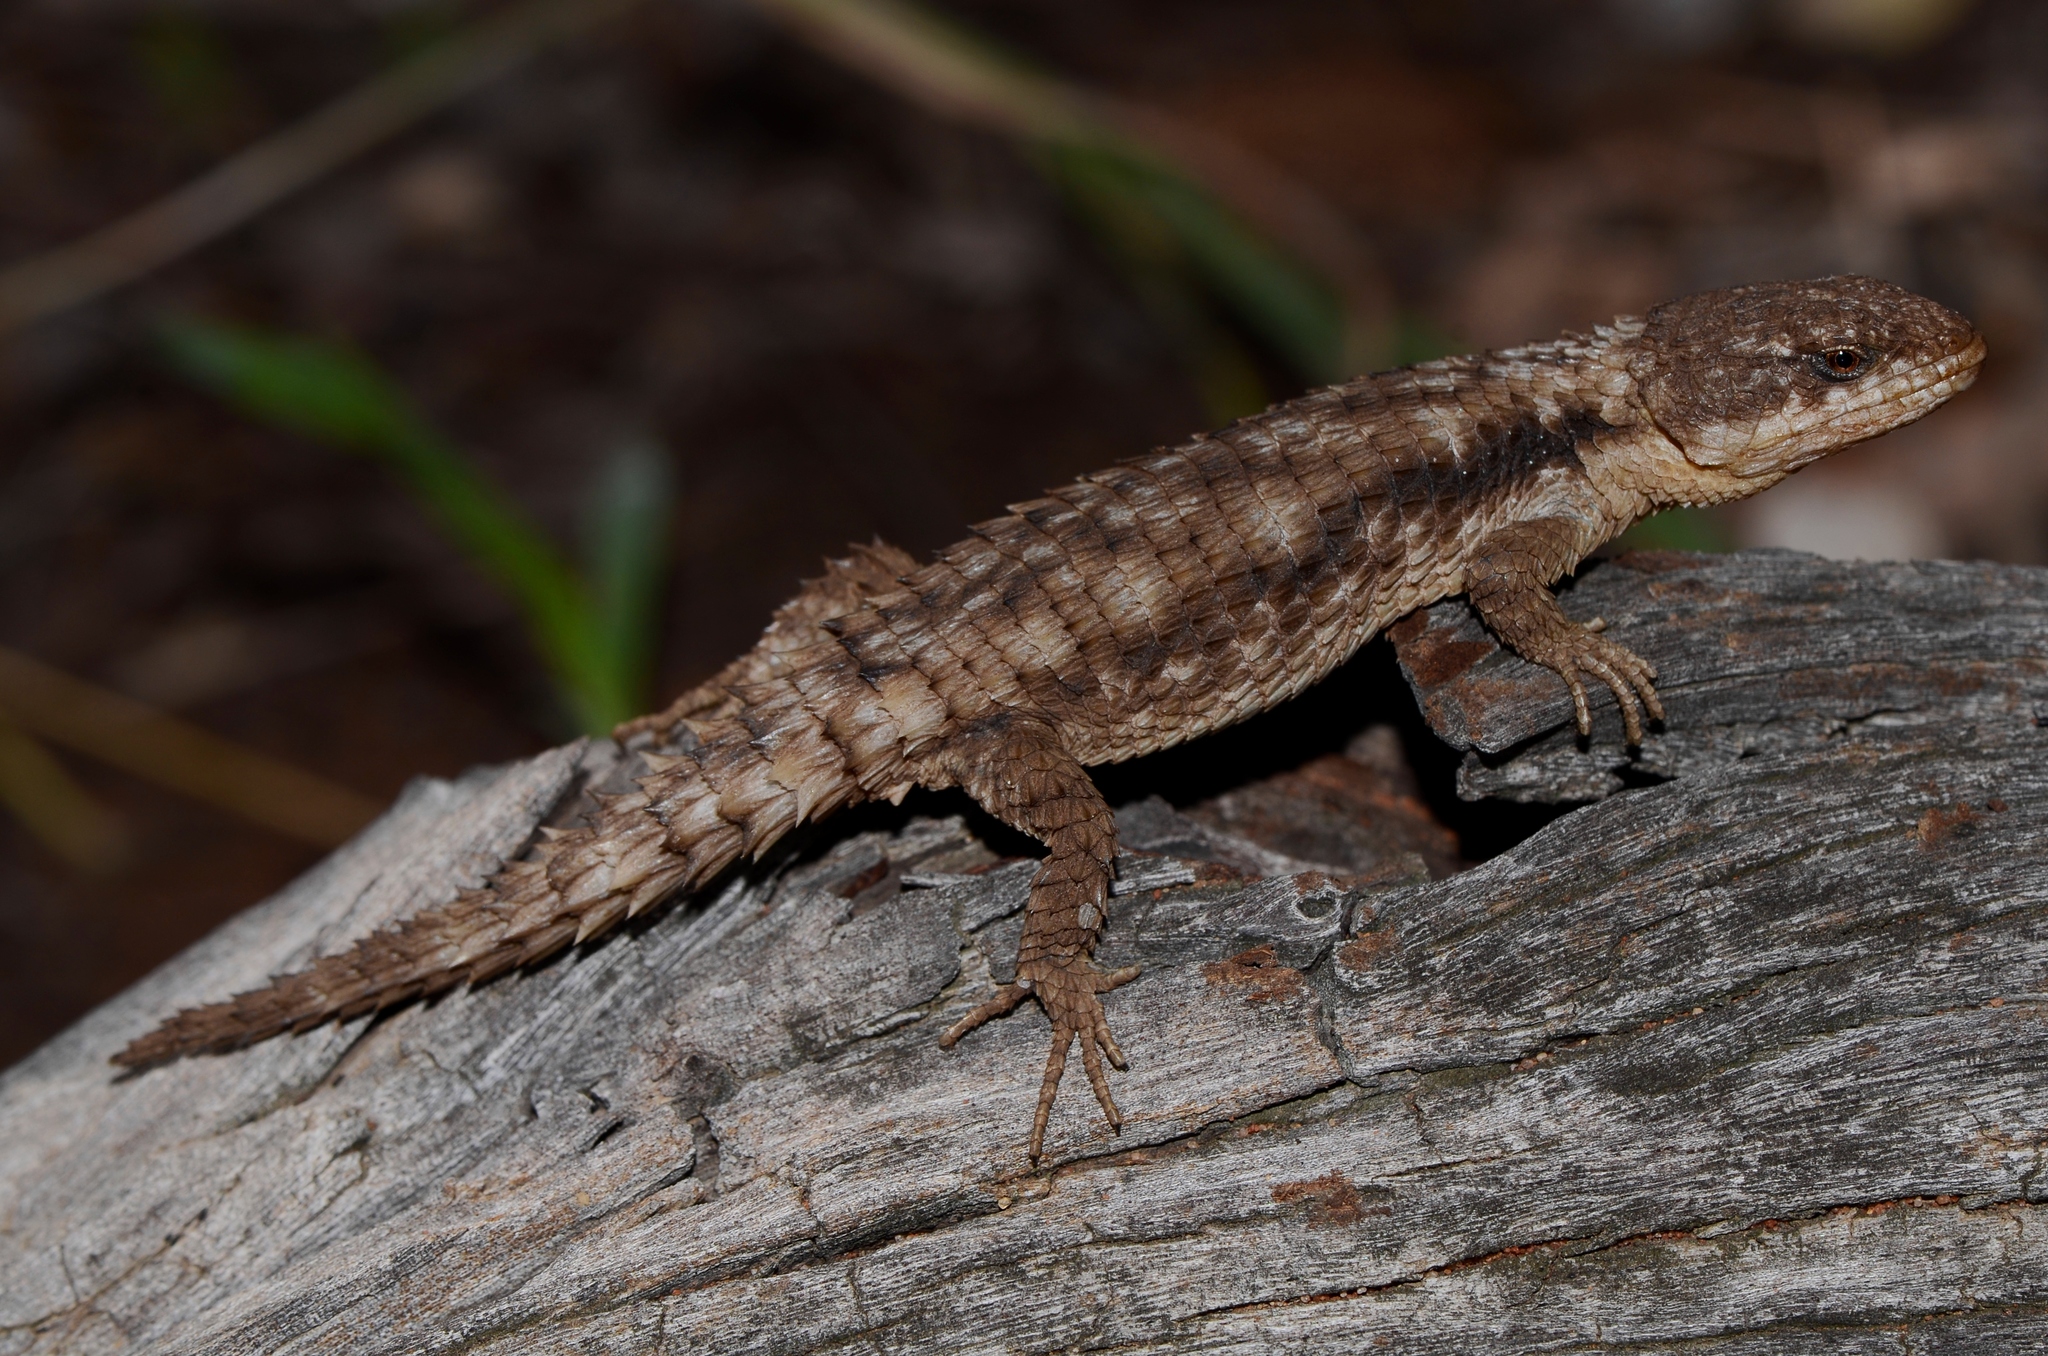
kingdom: Animalia
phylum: Chordata
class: Squamata
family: Cordylidae
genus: Cordylus
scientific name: Cordylus jonesii
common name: Jones' girdled lizard
